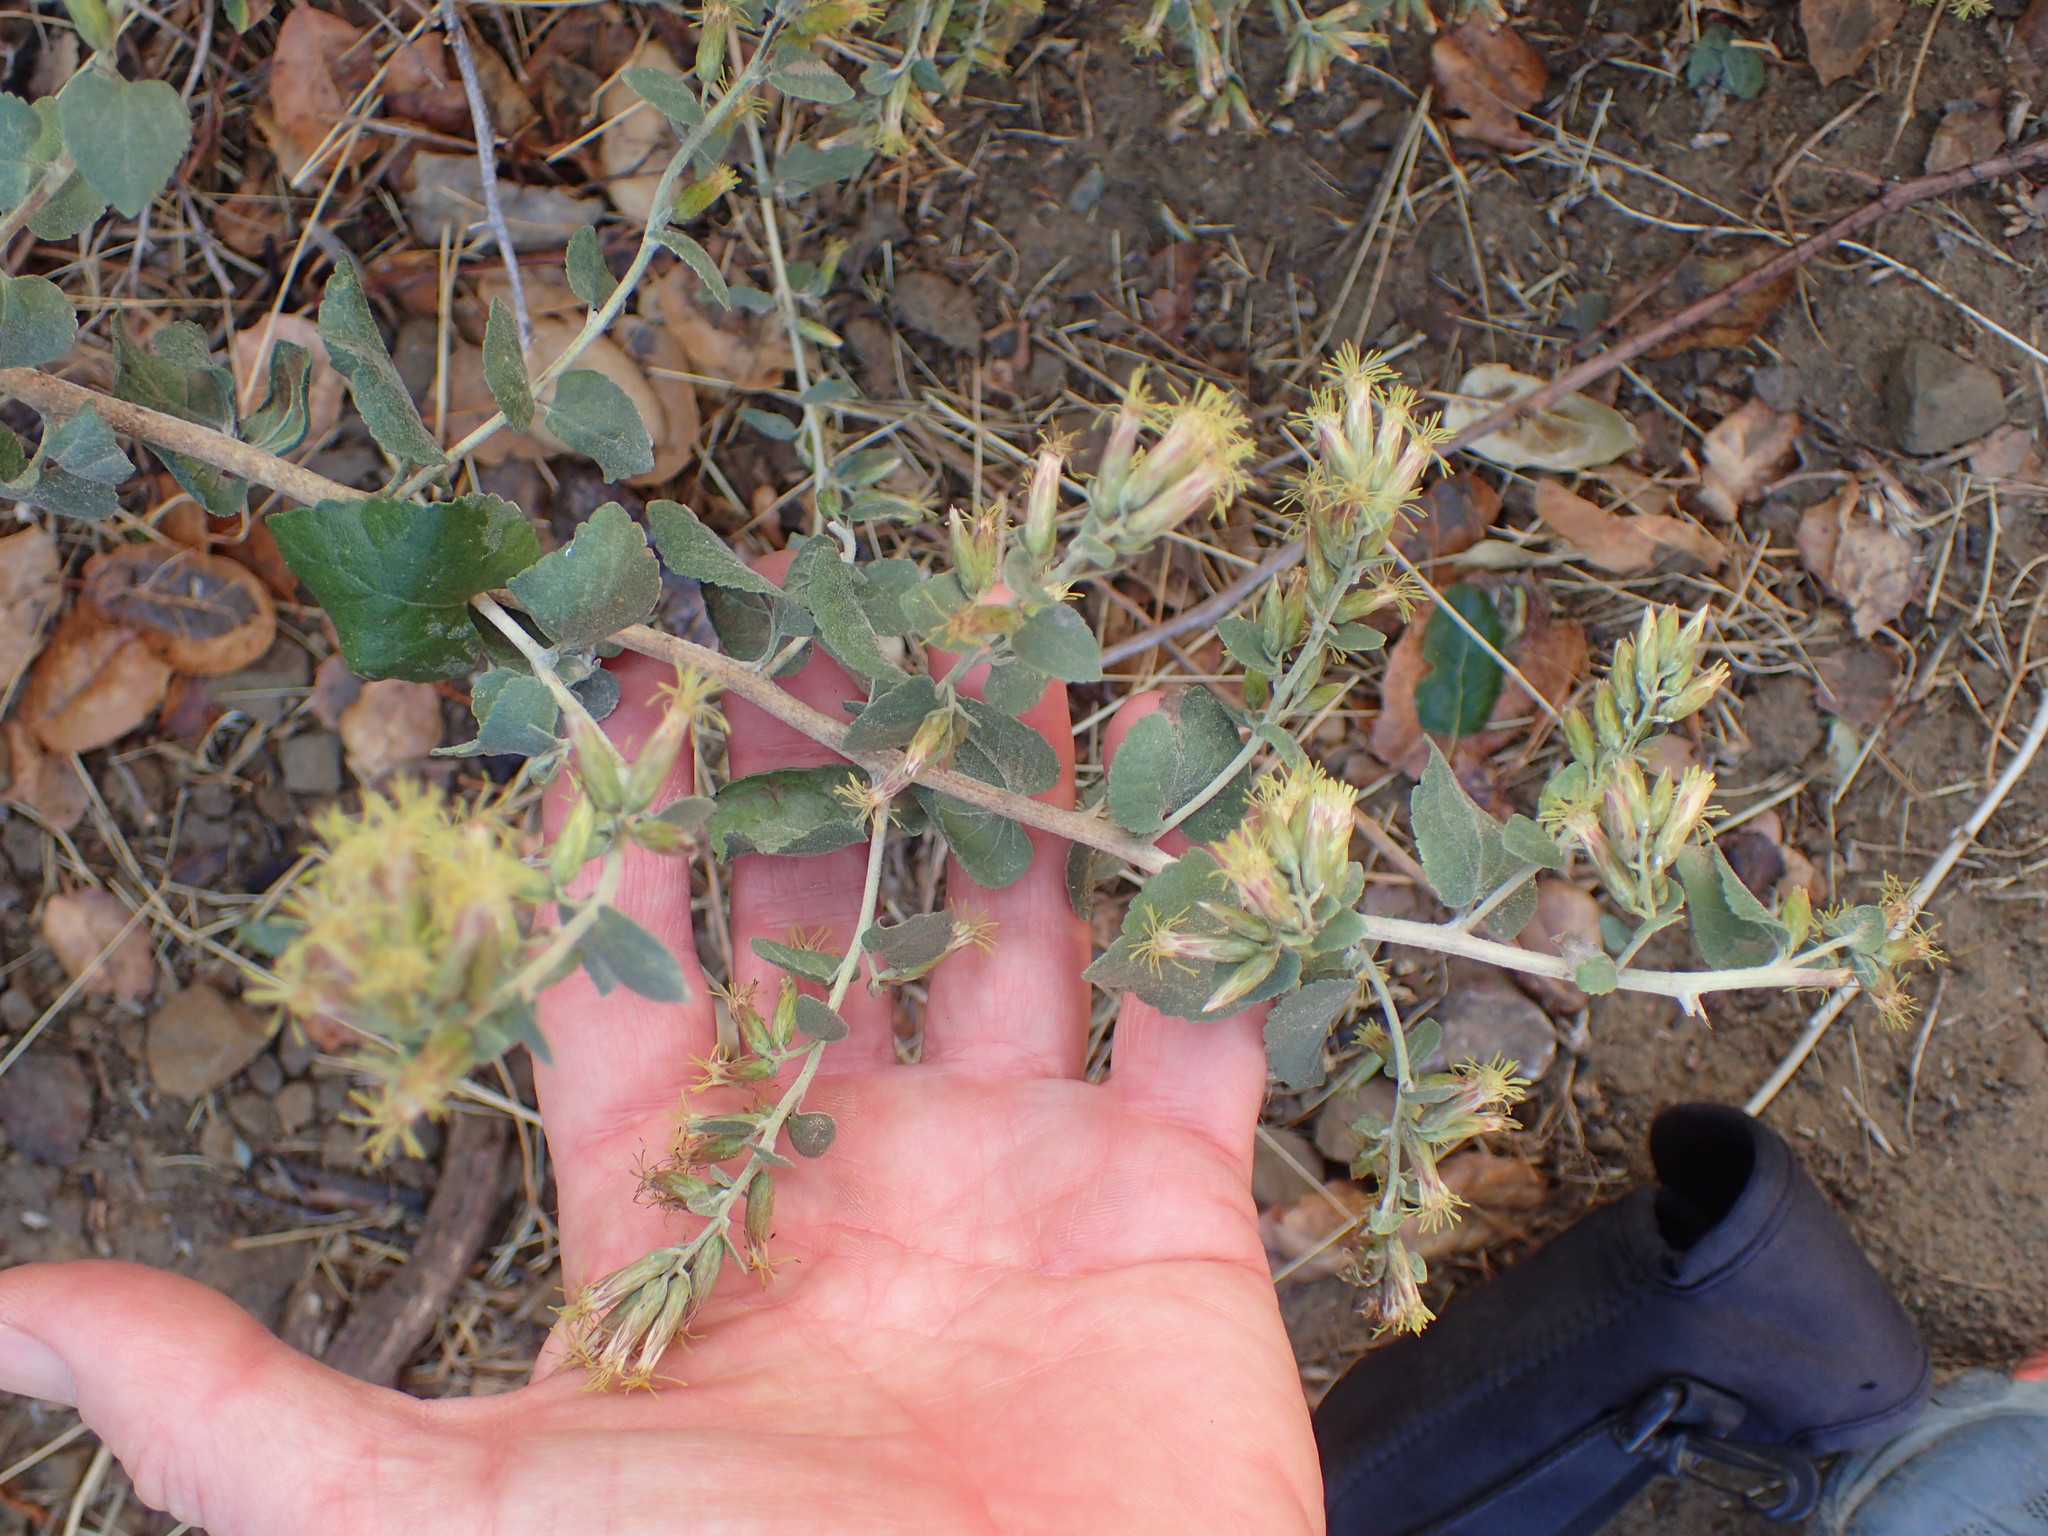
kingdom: Plantae
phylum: Tracheophyta
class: Magnoliopsida
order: Asterales
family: Asteraceae
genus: Brickellia
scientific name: Brickellia californica
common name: California brickellbush
